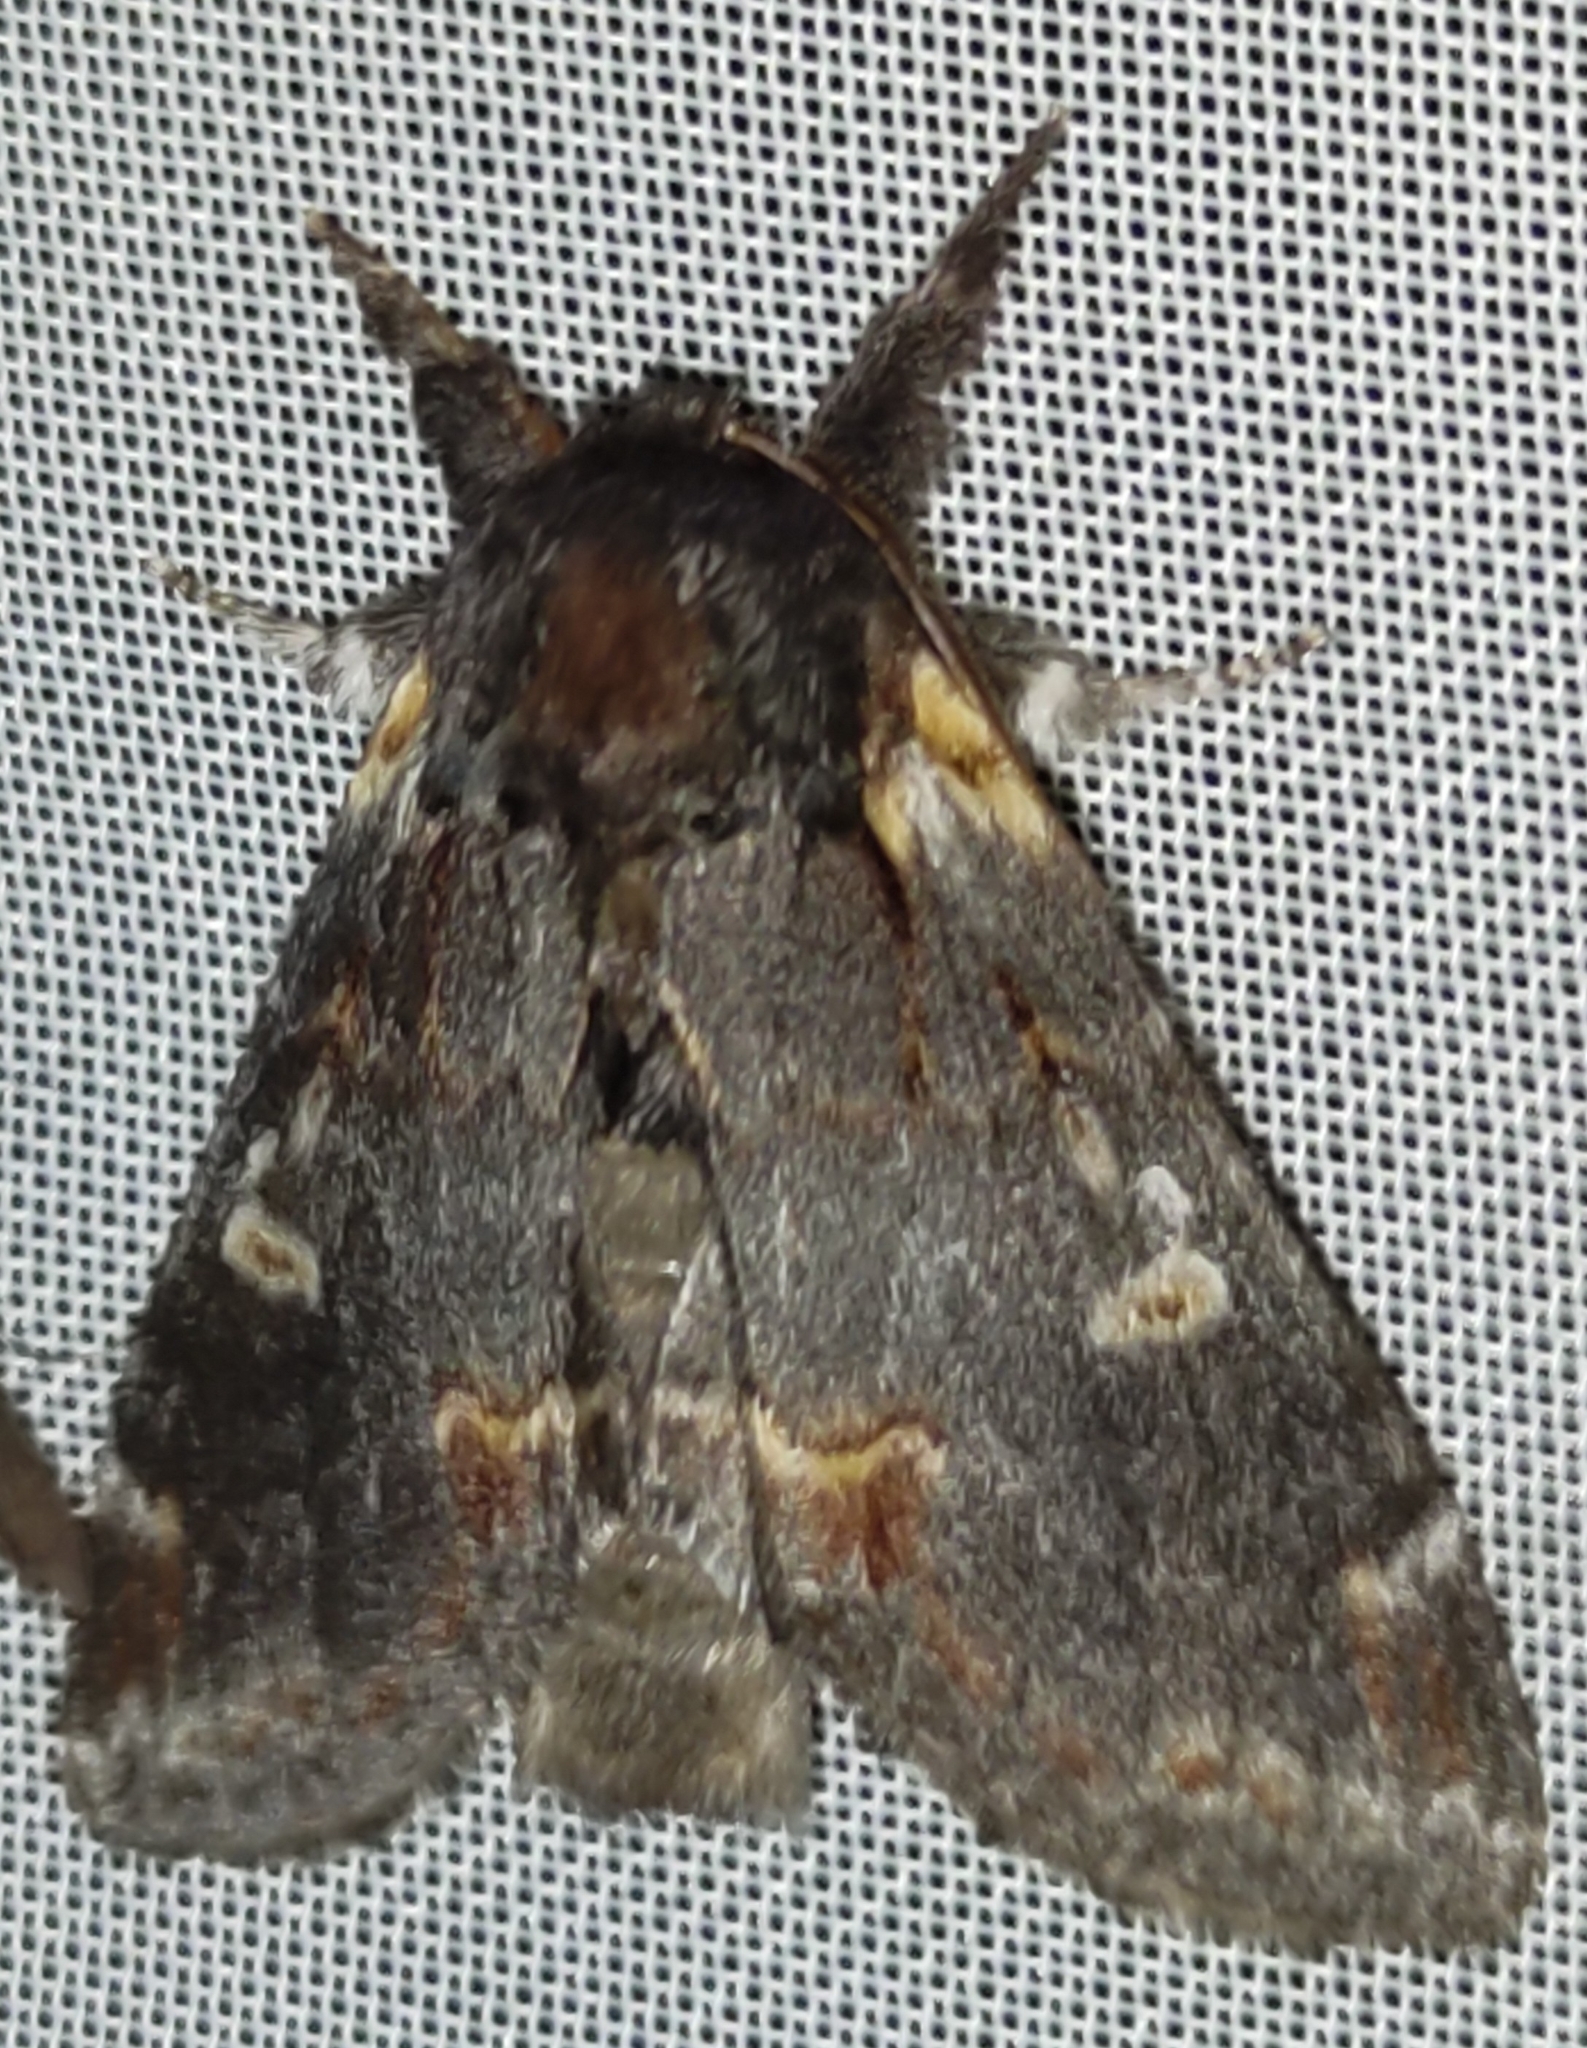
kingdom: Animalia
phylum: Arthropoda
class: Insecta
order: Lepidoptera
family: Notodontidae
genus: Notodonta
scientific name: Notodonta dromedarius
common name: Iron prominent
